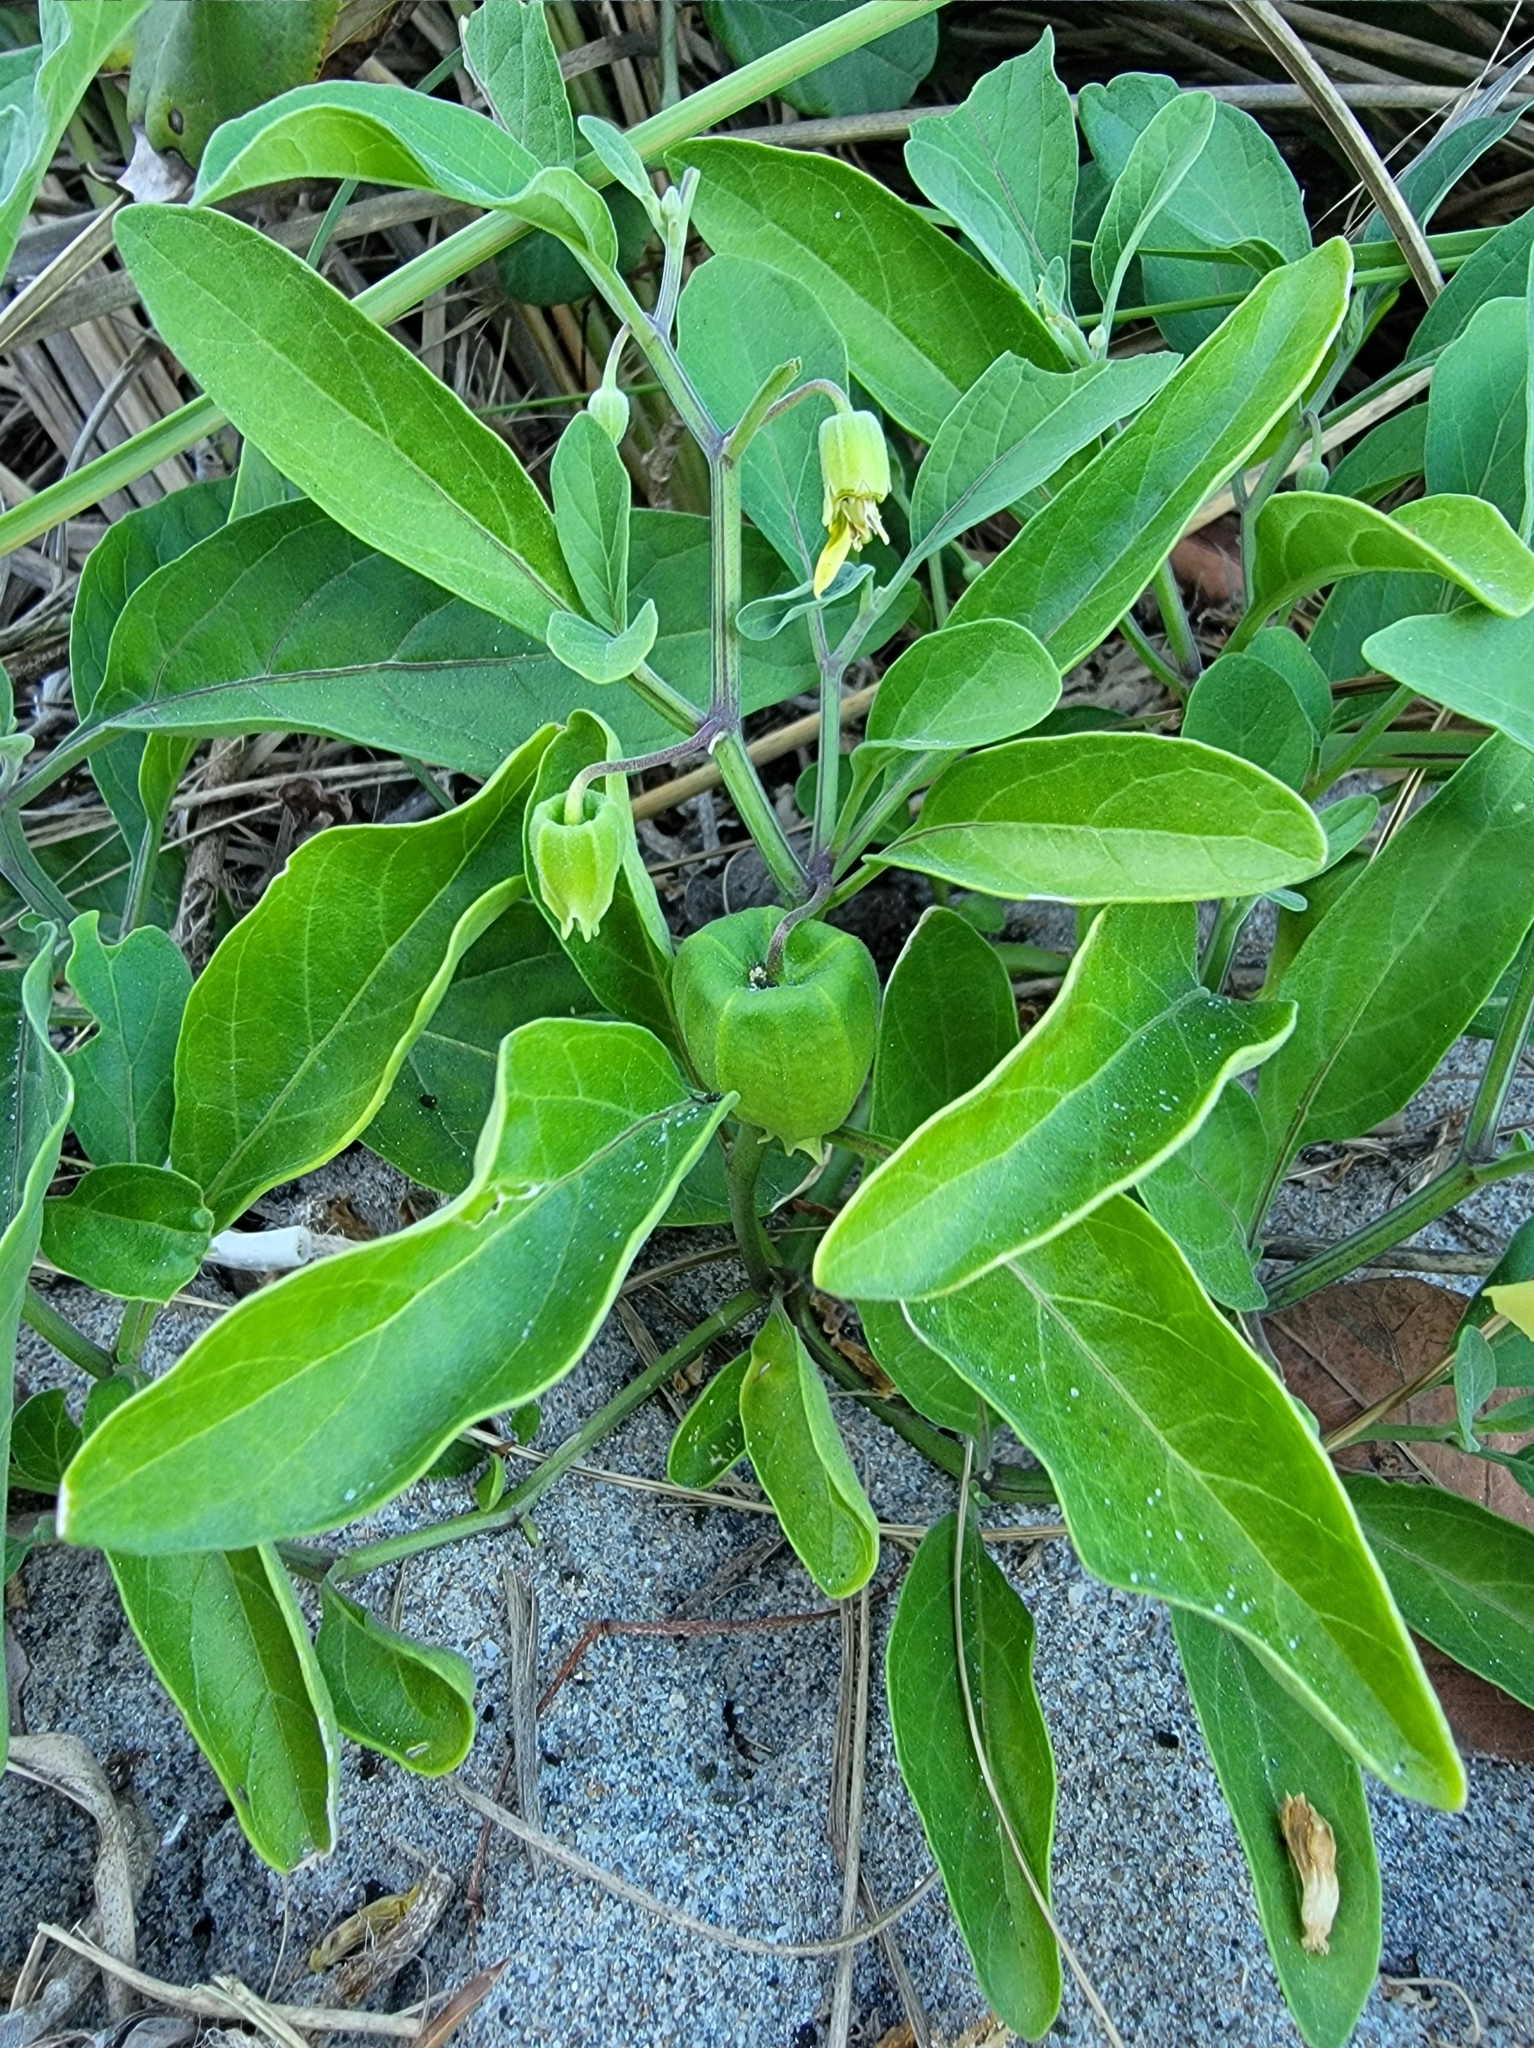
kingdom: Plantae
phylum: Tracheophyta
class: Magnoliopsida
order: Solanales
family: Solanaceae
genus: Physalis
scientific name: Physalis walteri
